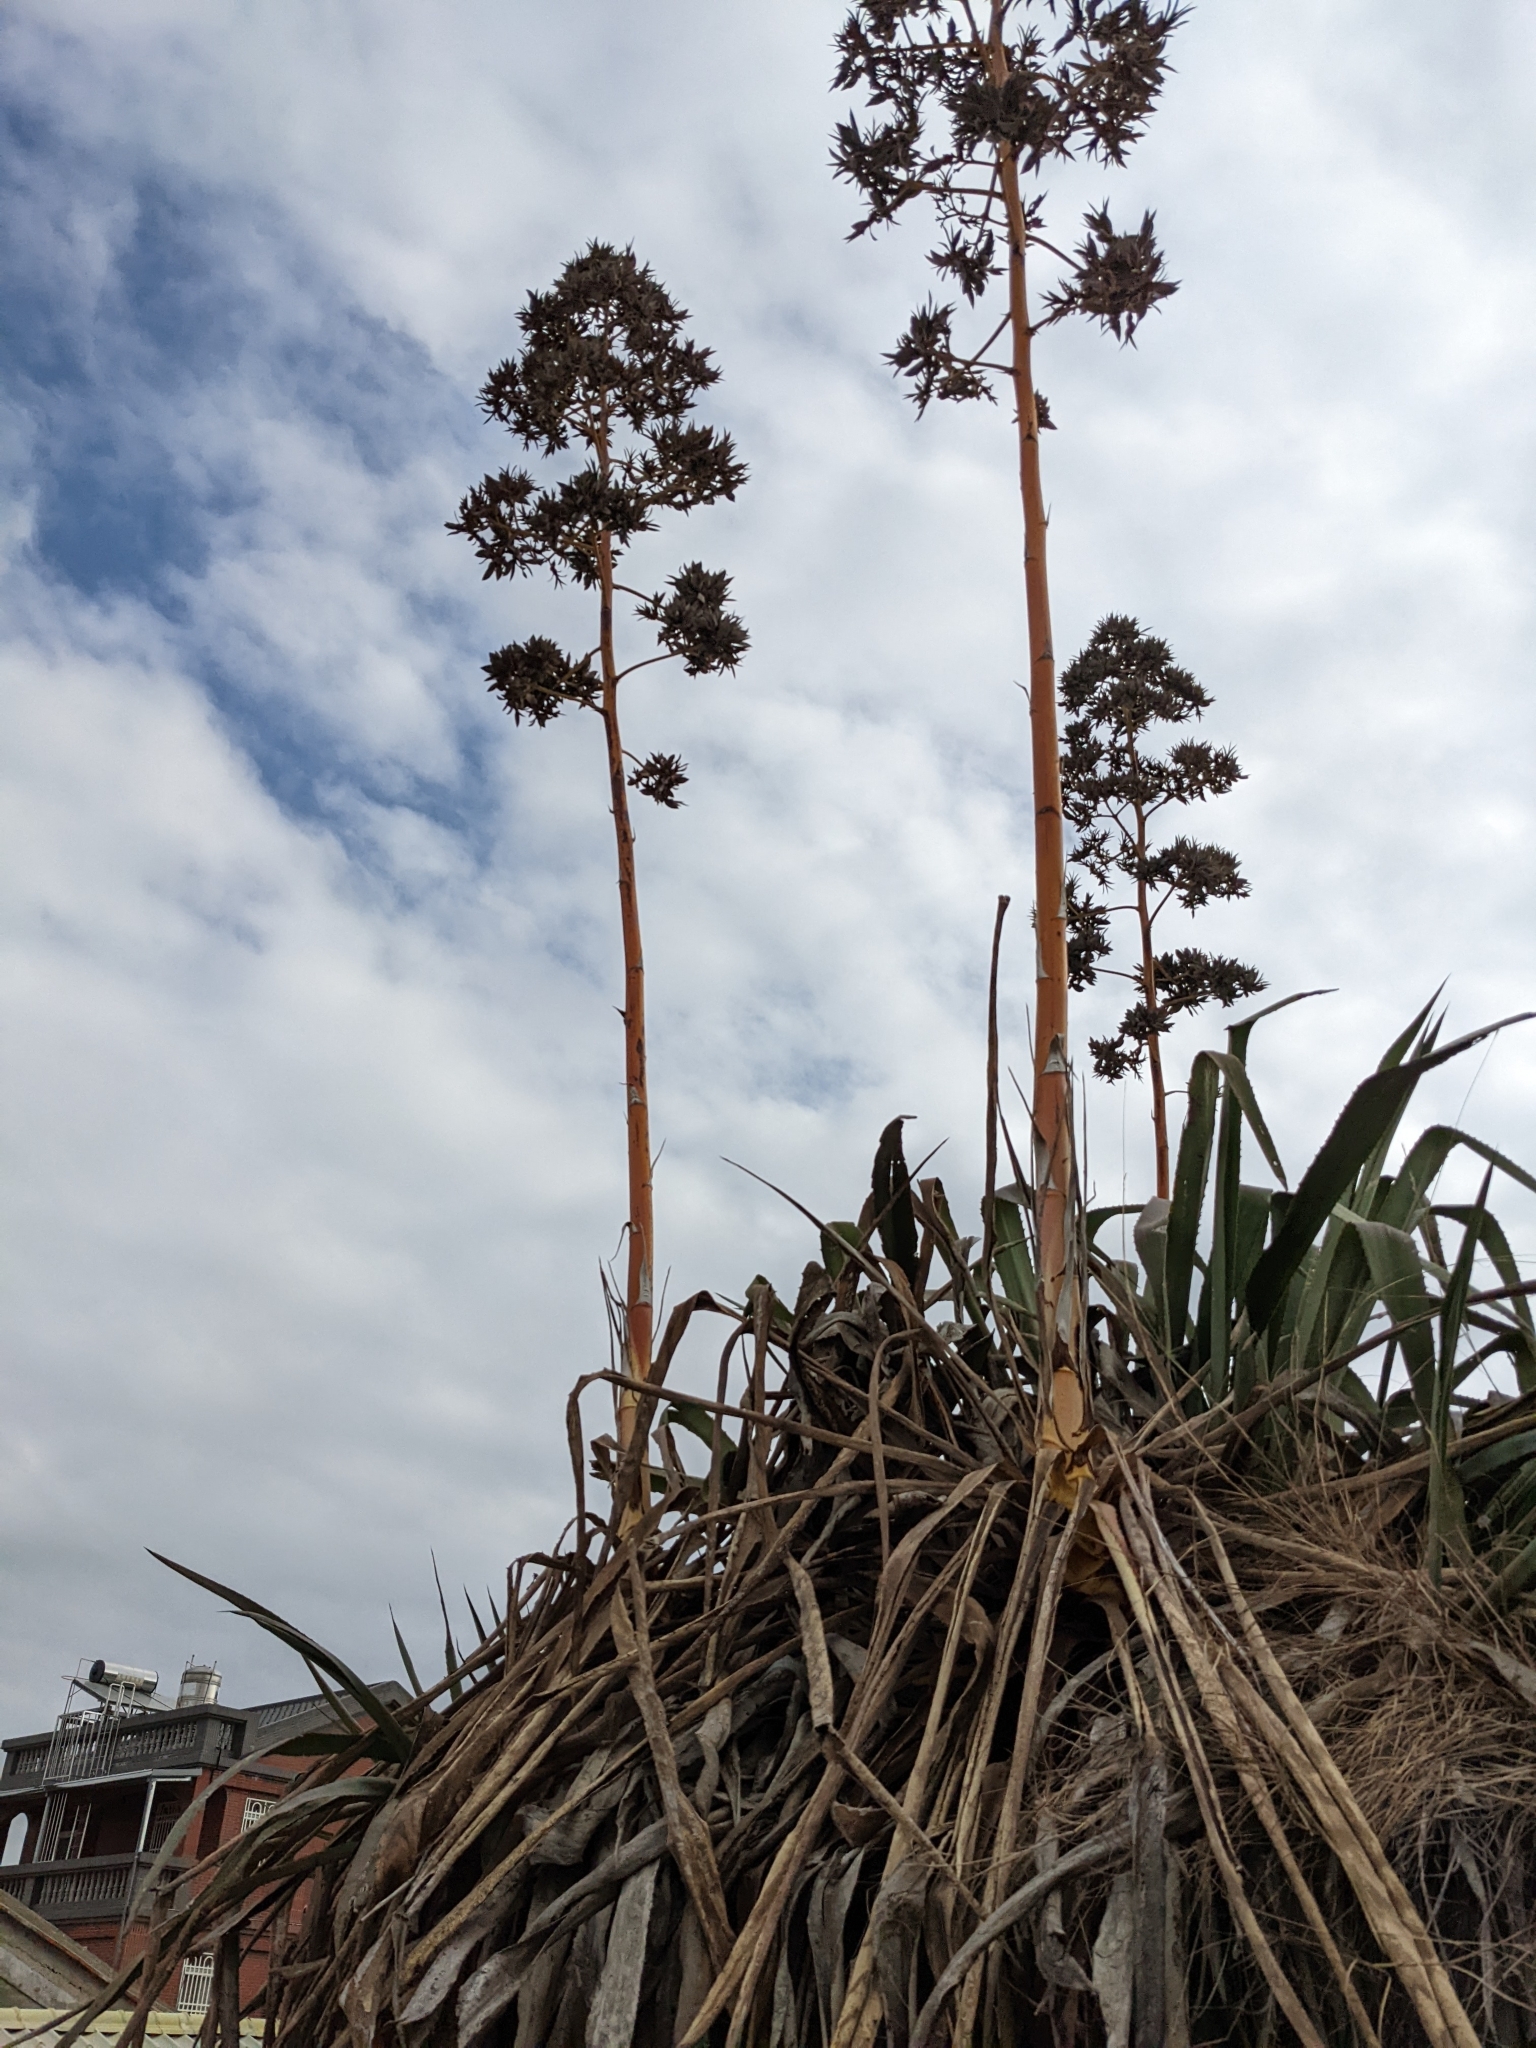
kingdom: Plantae
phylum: Tracheophyta
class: Liliopsida
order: Asparagales
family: Asparagaceae
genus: Agave
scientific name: Agave americana
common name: Centuryplant
